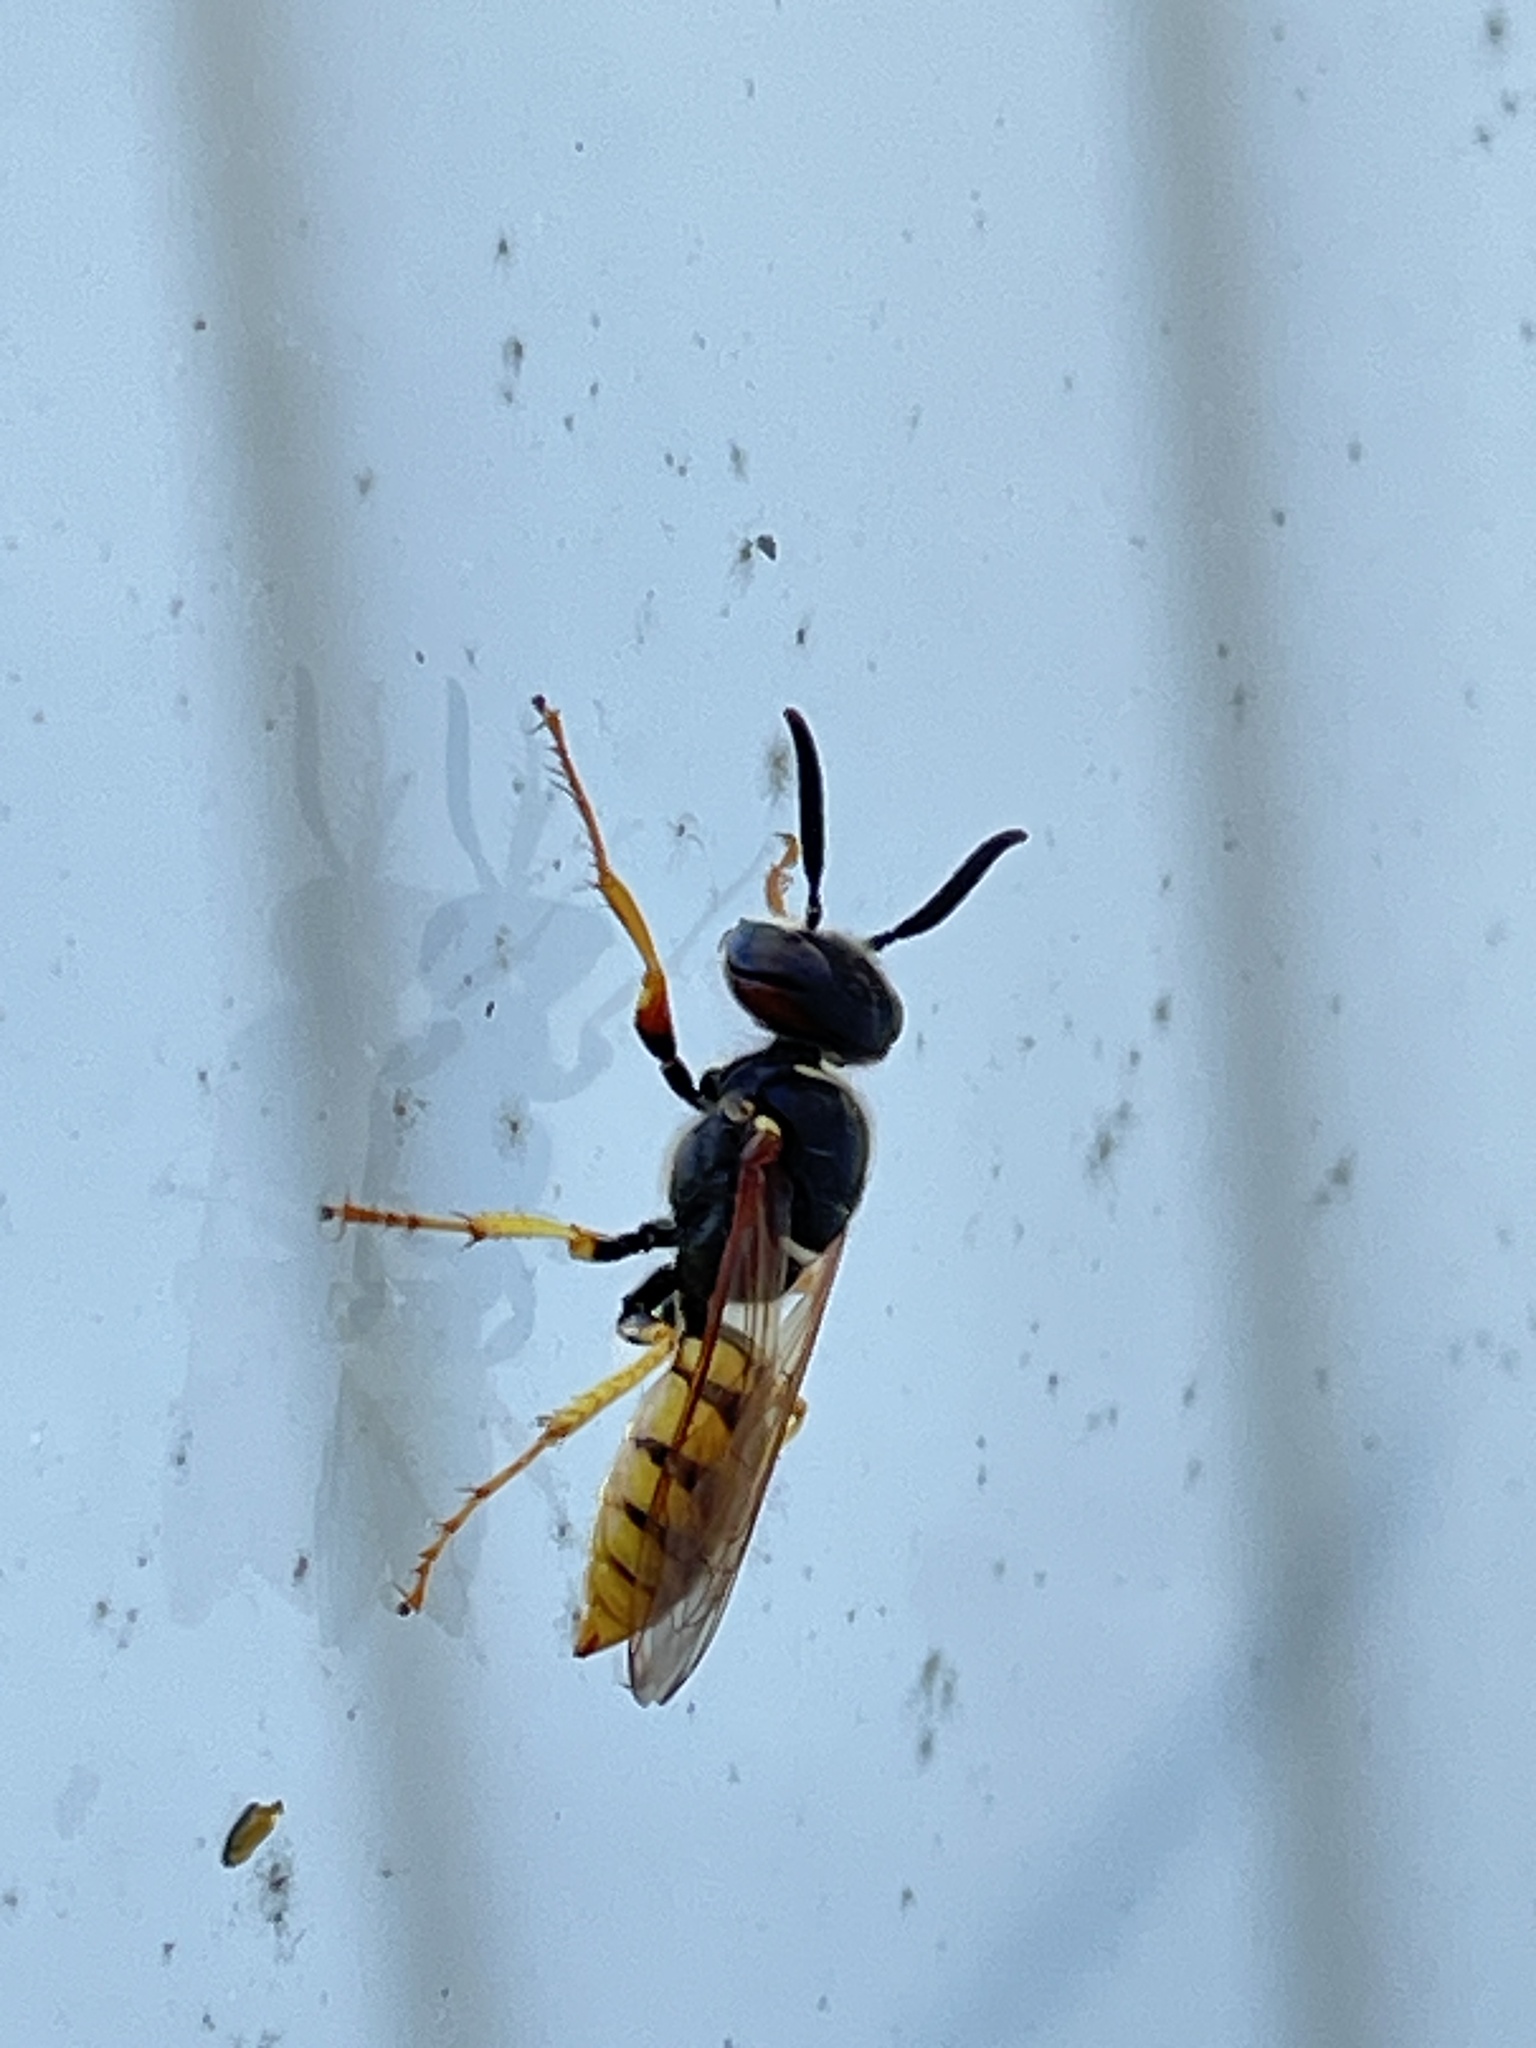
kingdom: Animalia
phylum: Arthropoda
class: Insecta
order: Hymenoptera
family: Crabronidae
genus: Philanthus
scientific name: Philanthus triangulum
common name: Bee wolf
